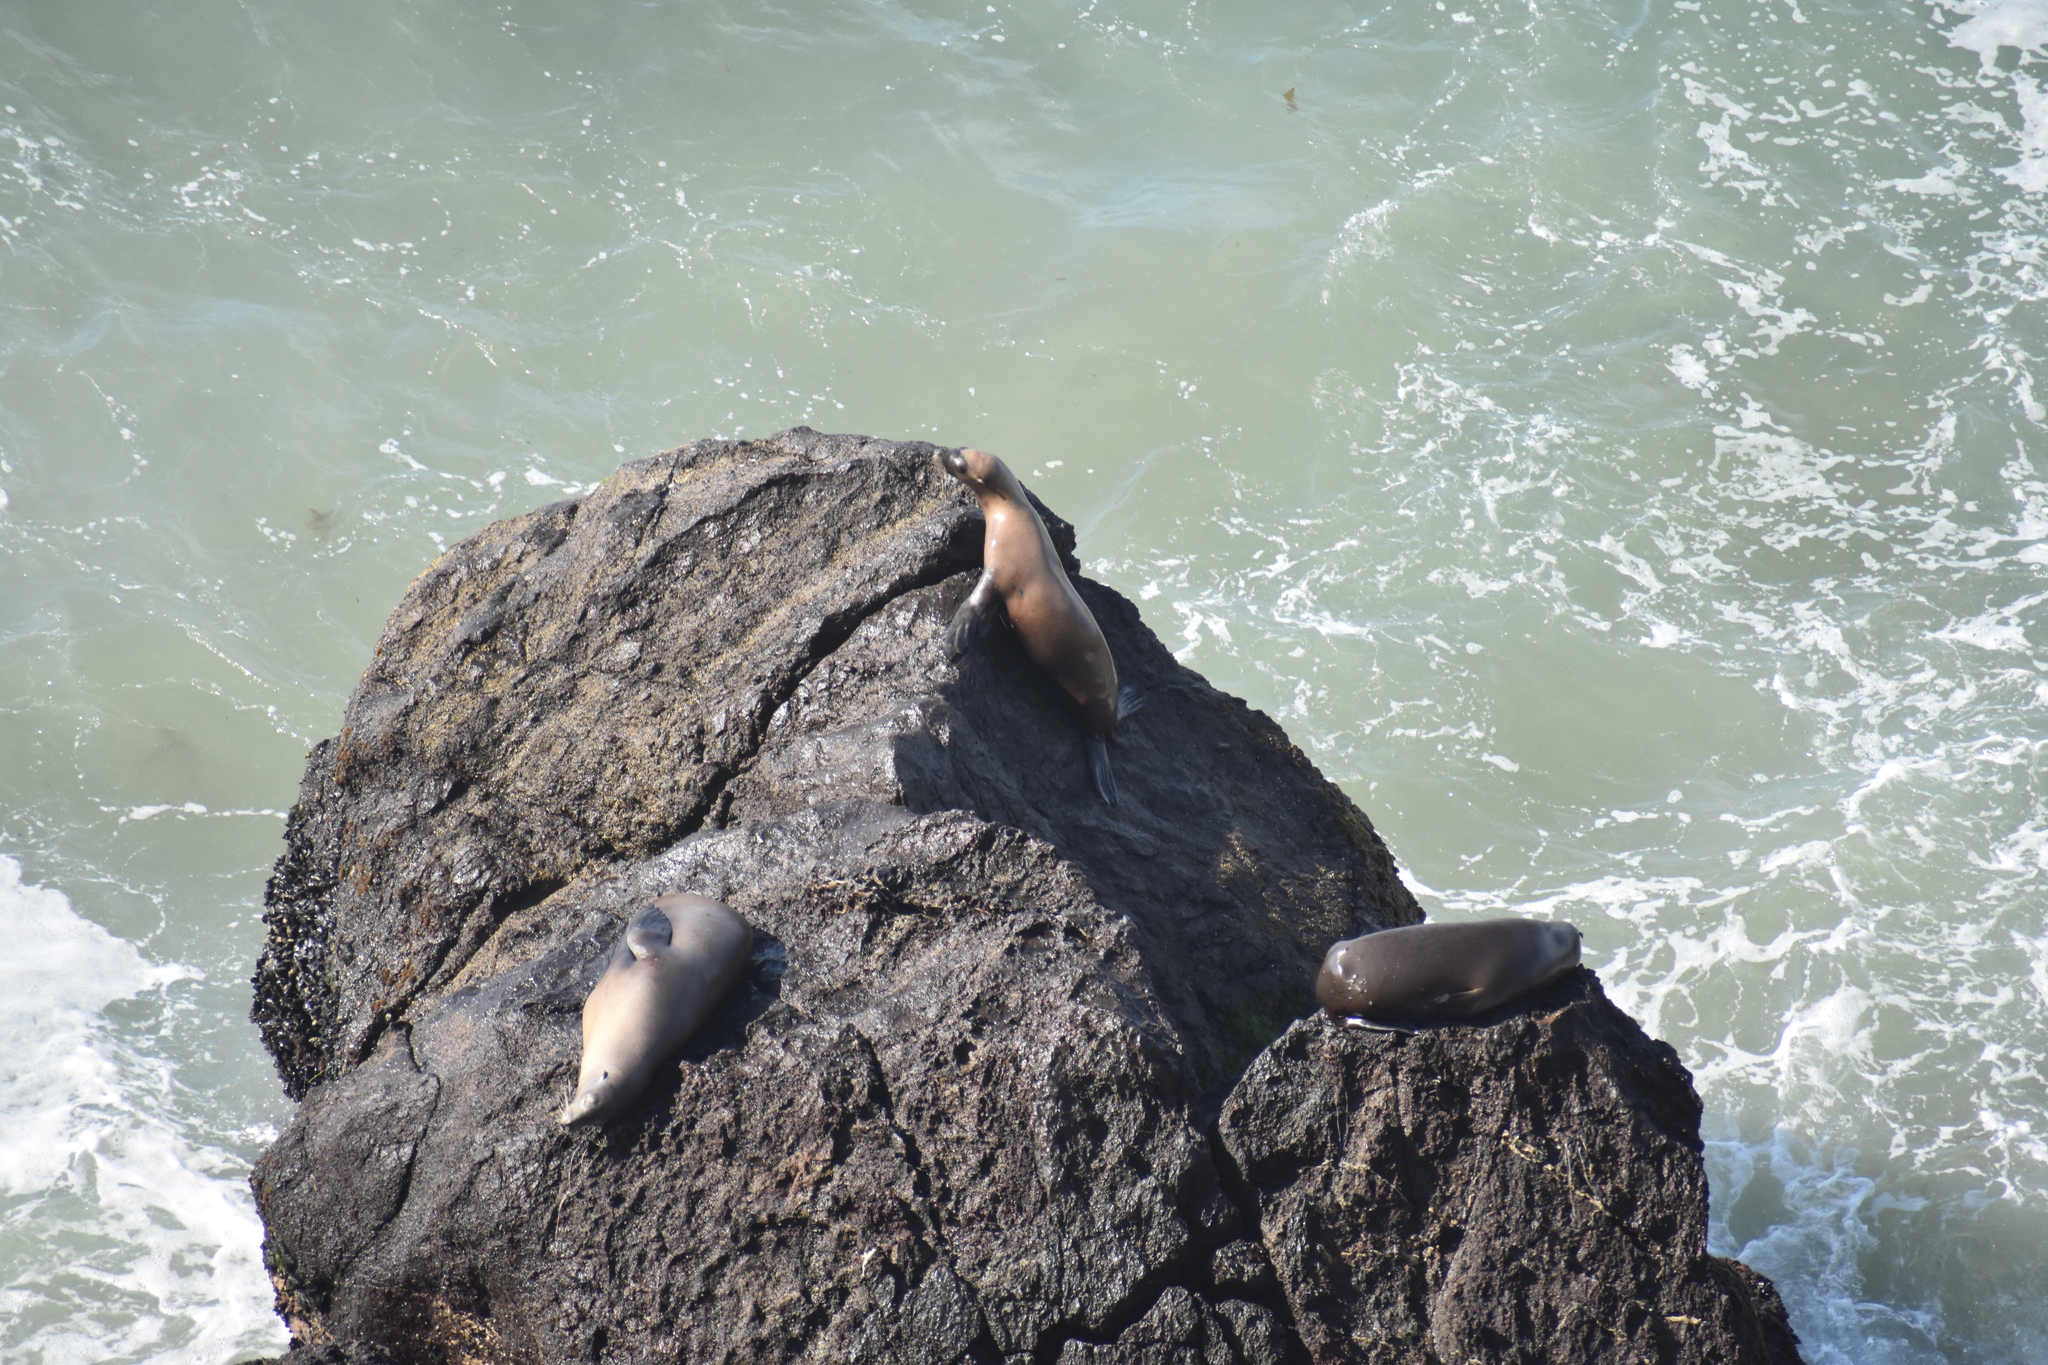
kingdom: Animalia
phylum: Chordata
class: Mammalia
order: Carnivora
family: Otariidae
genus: Zalophus
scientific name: Zalophus californianus
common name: California sea lion
